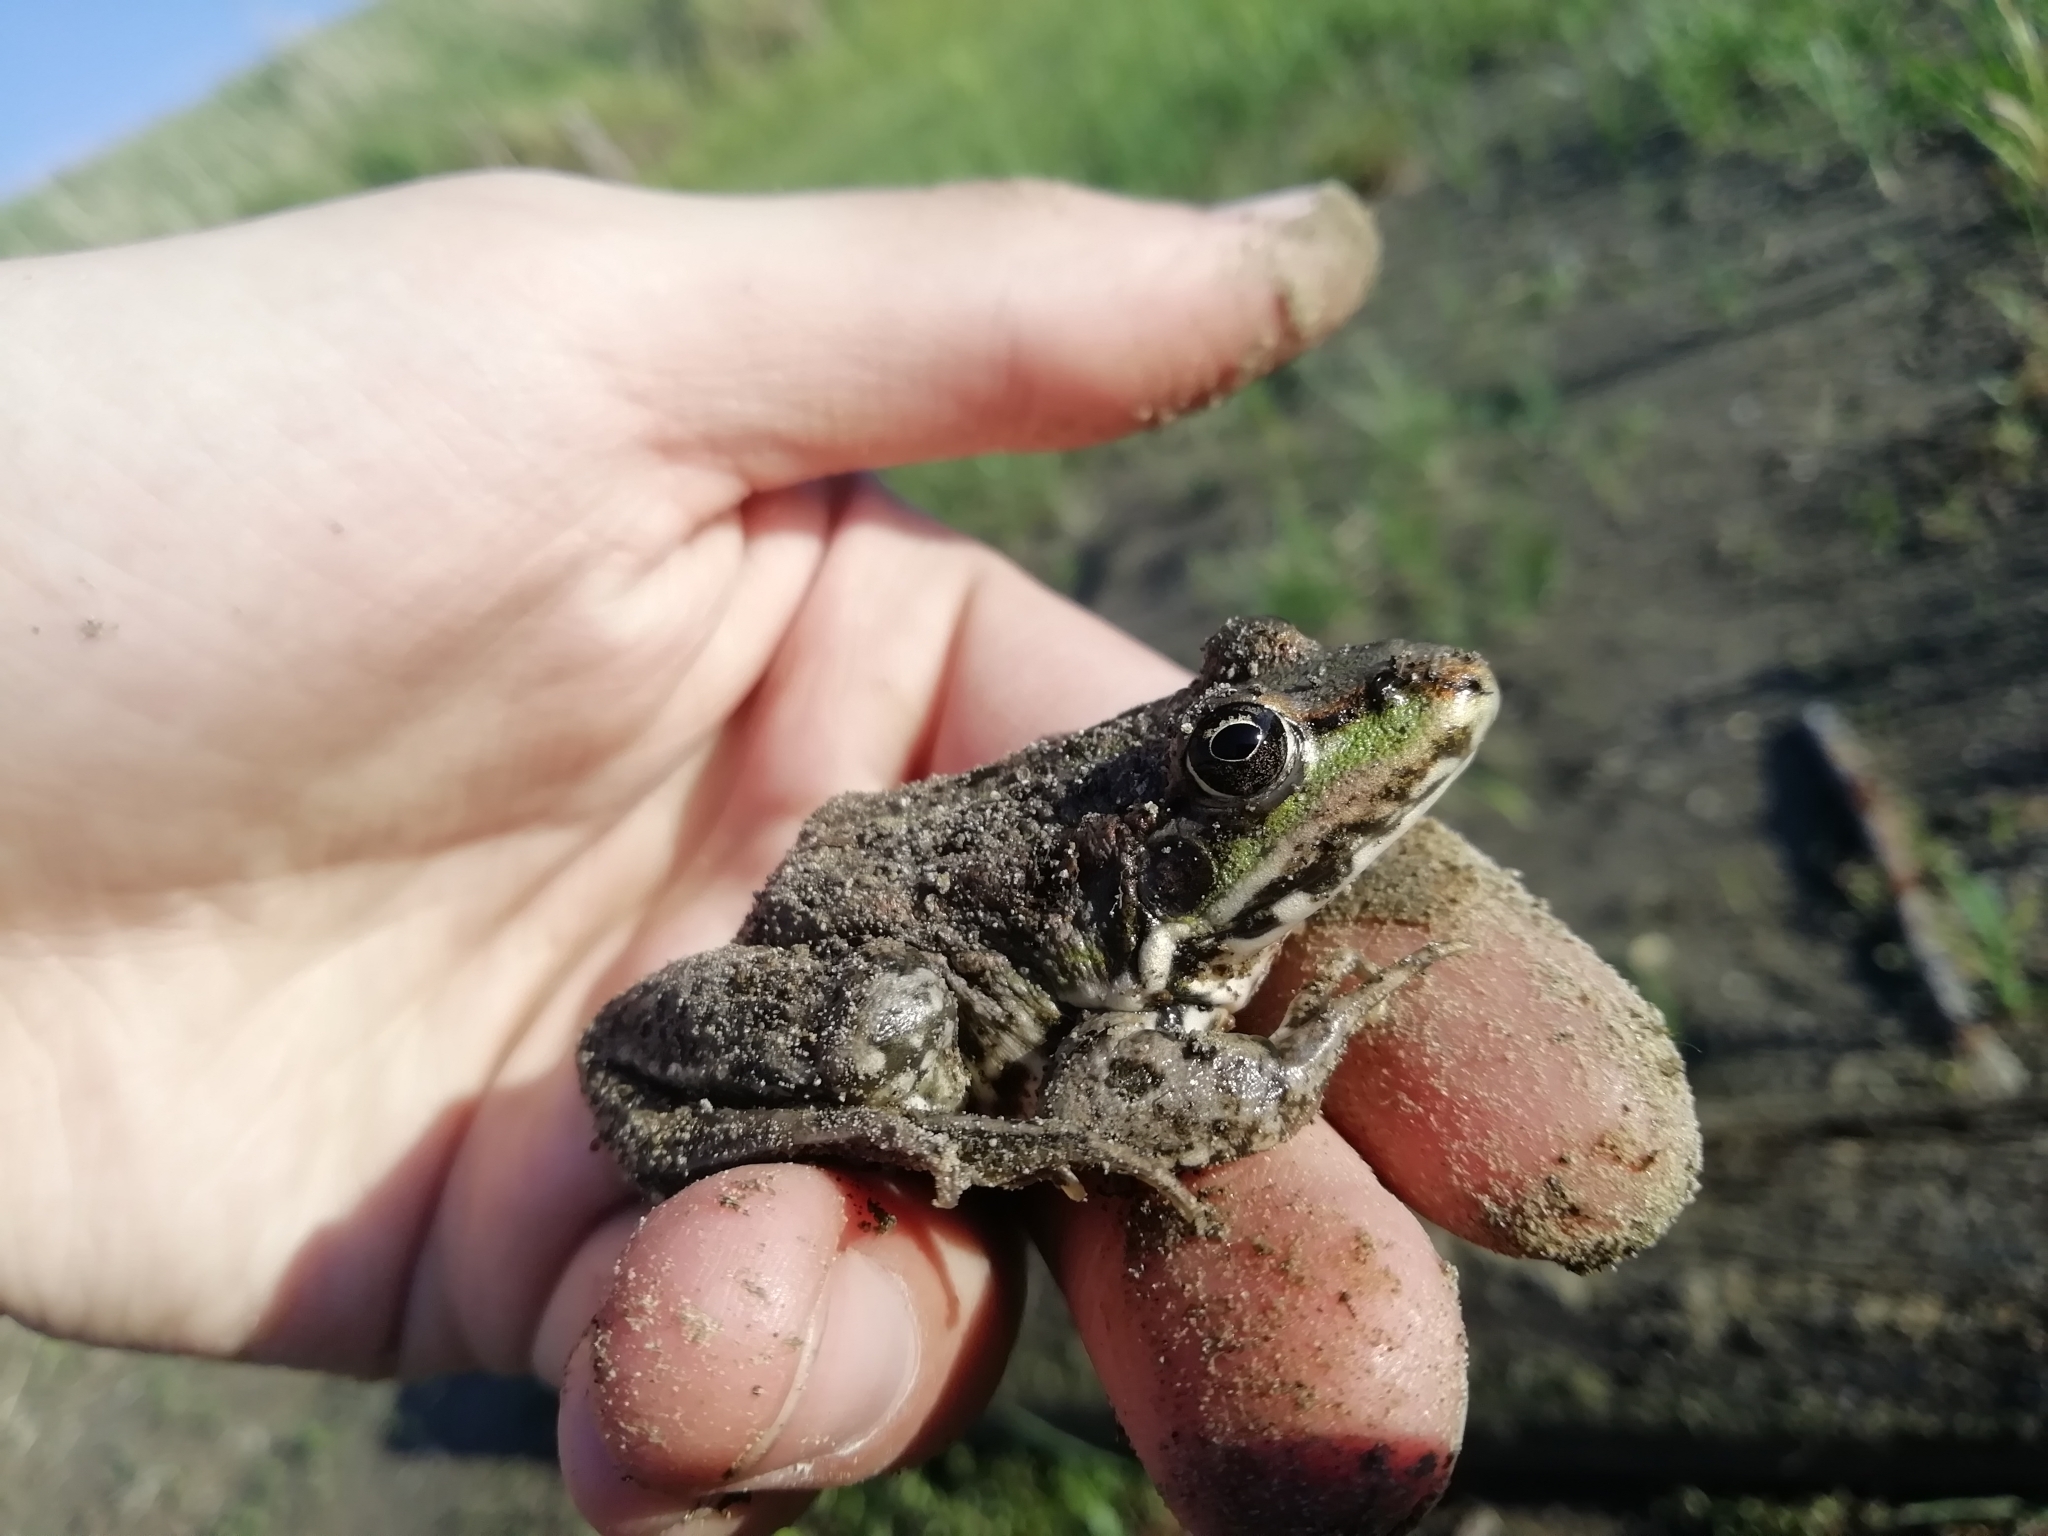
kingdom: Animalia
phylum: Chordata
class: Amphibia
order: Anura
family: Ranidae
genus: Pelophylax
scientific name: Pelophylax ridibundus
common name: Marsh frog
